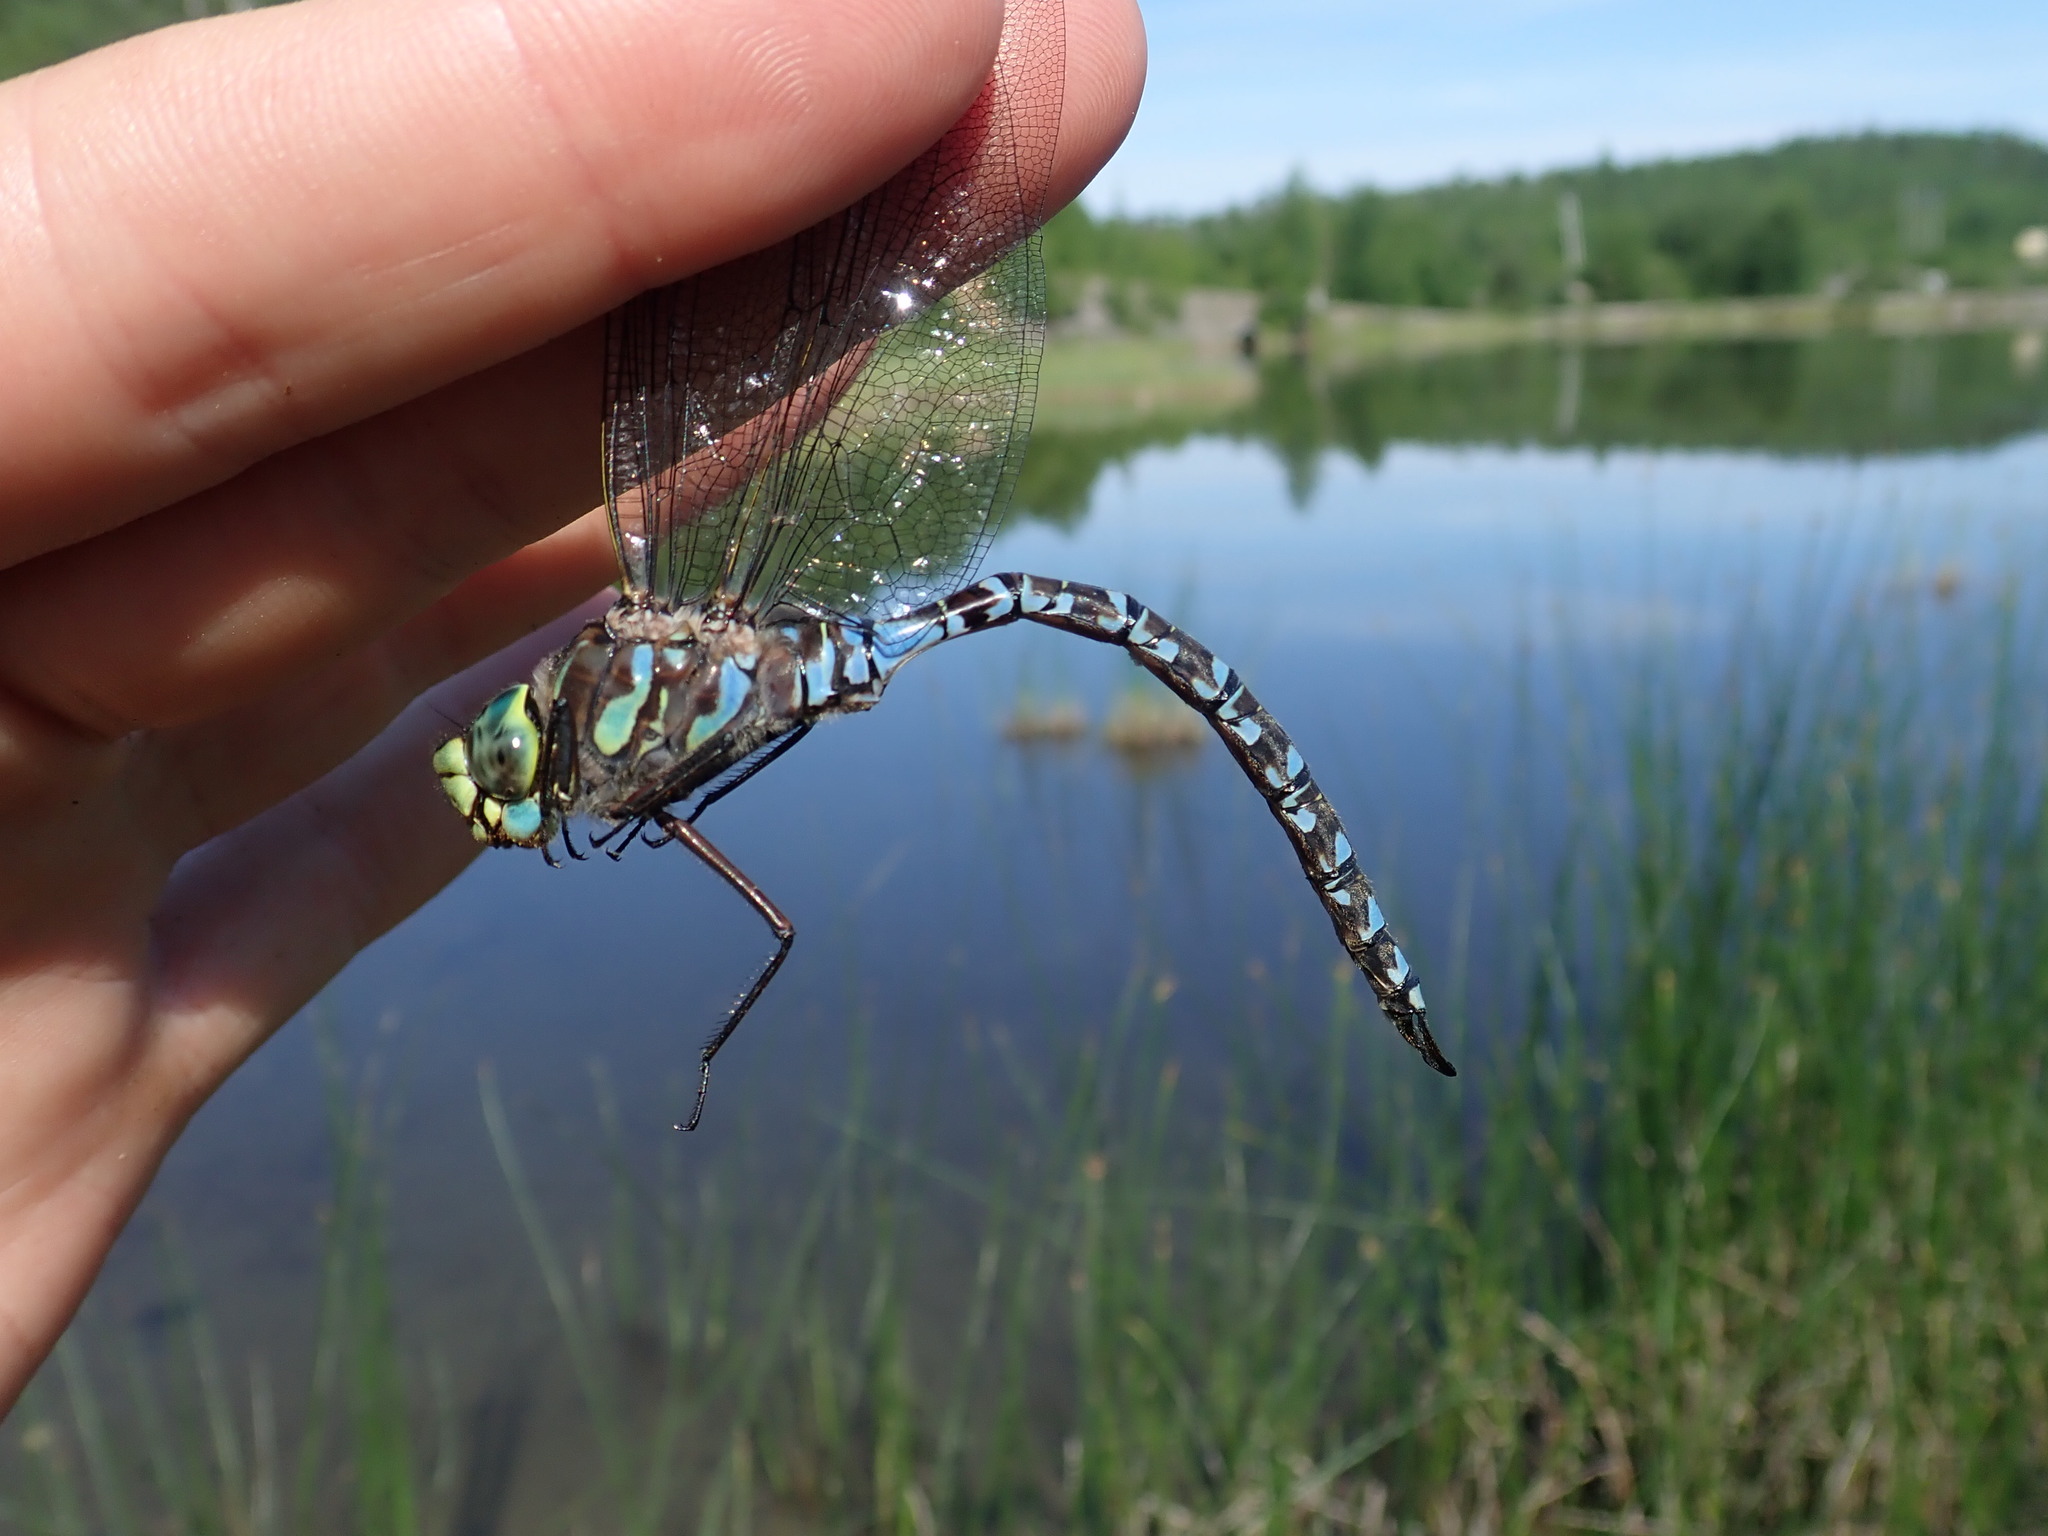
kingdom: Animalia
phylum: Arthropoda
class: Insecta
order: Odonata
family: Aeshnidae
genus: Aeshna
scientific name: Aeshna eremita
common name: Lake darner
